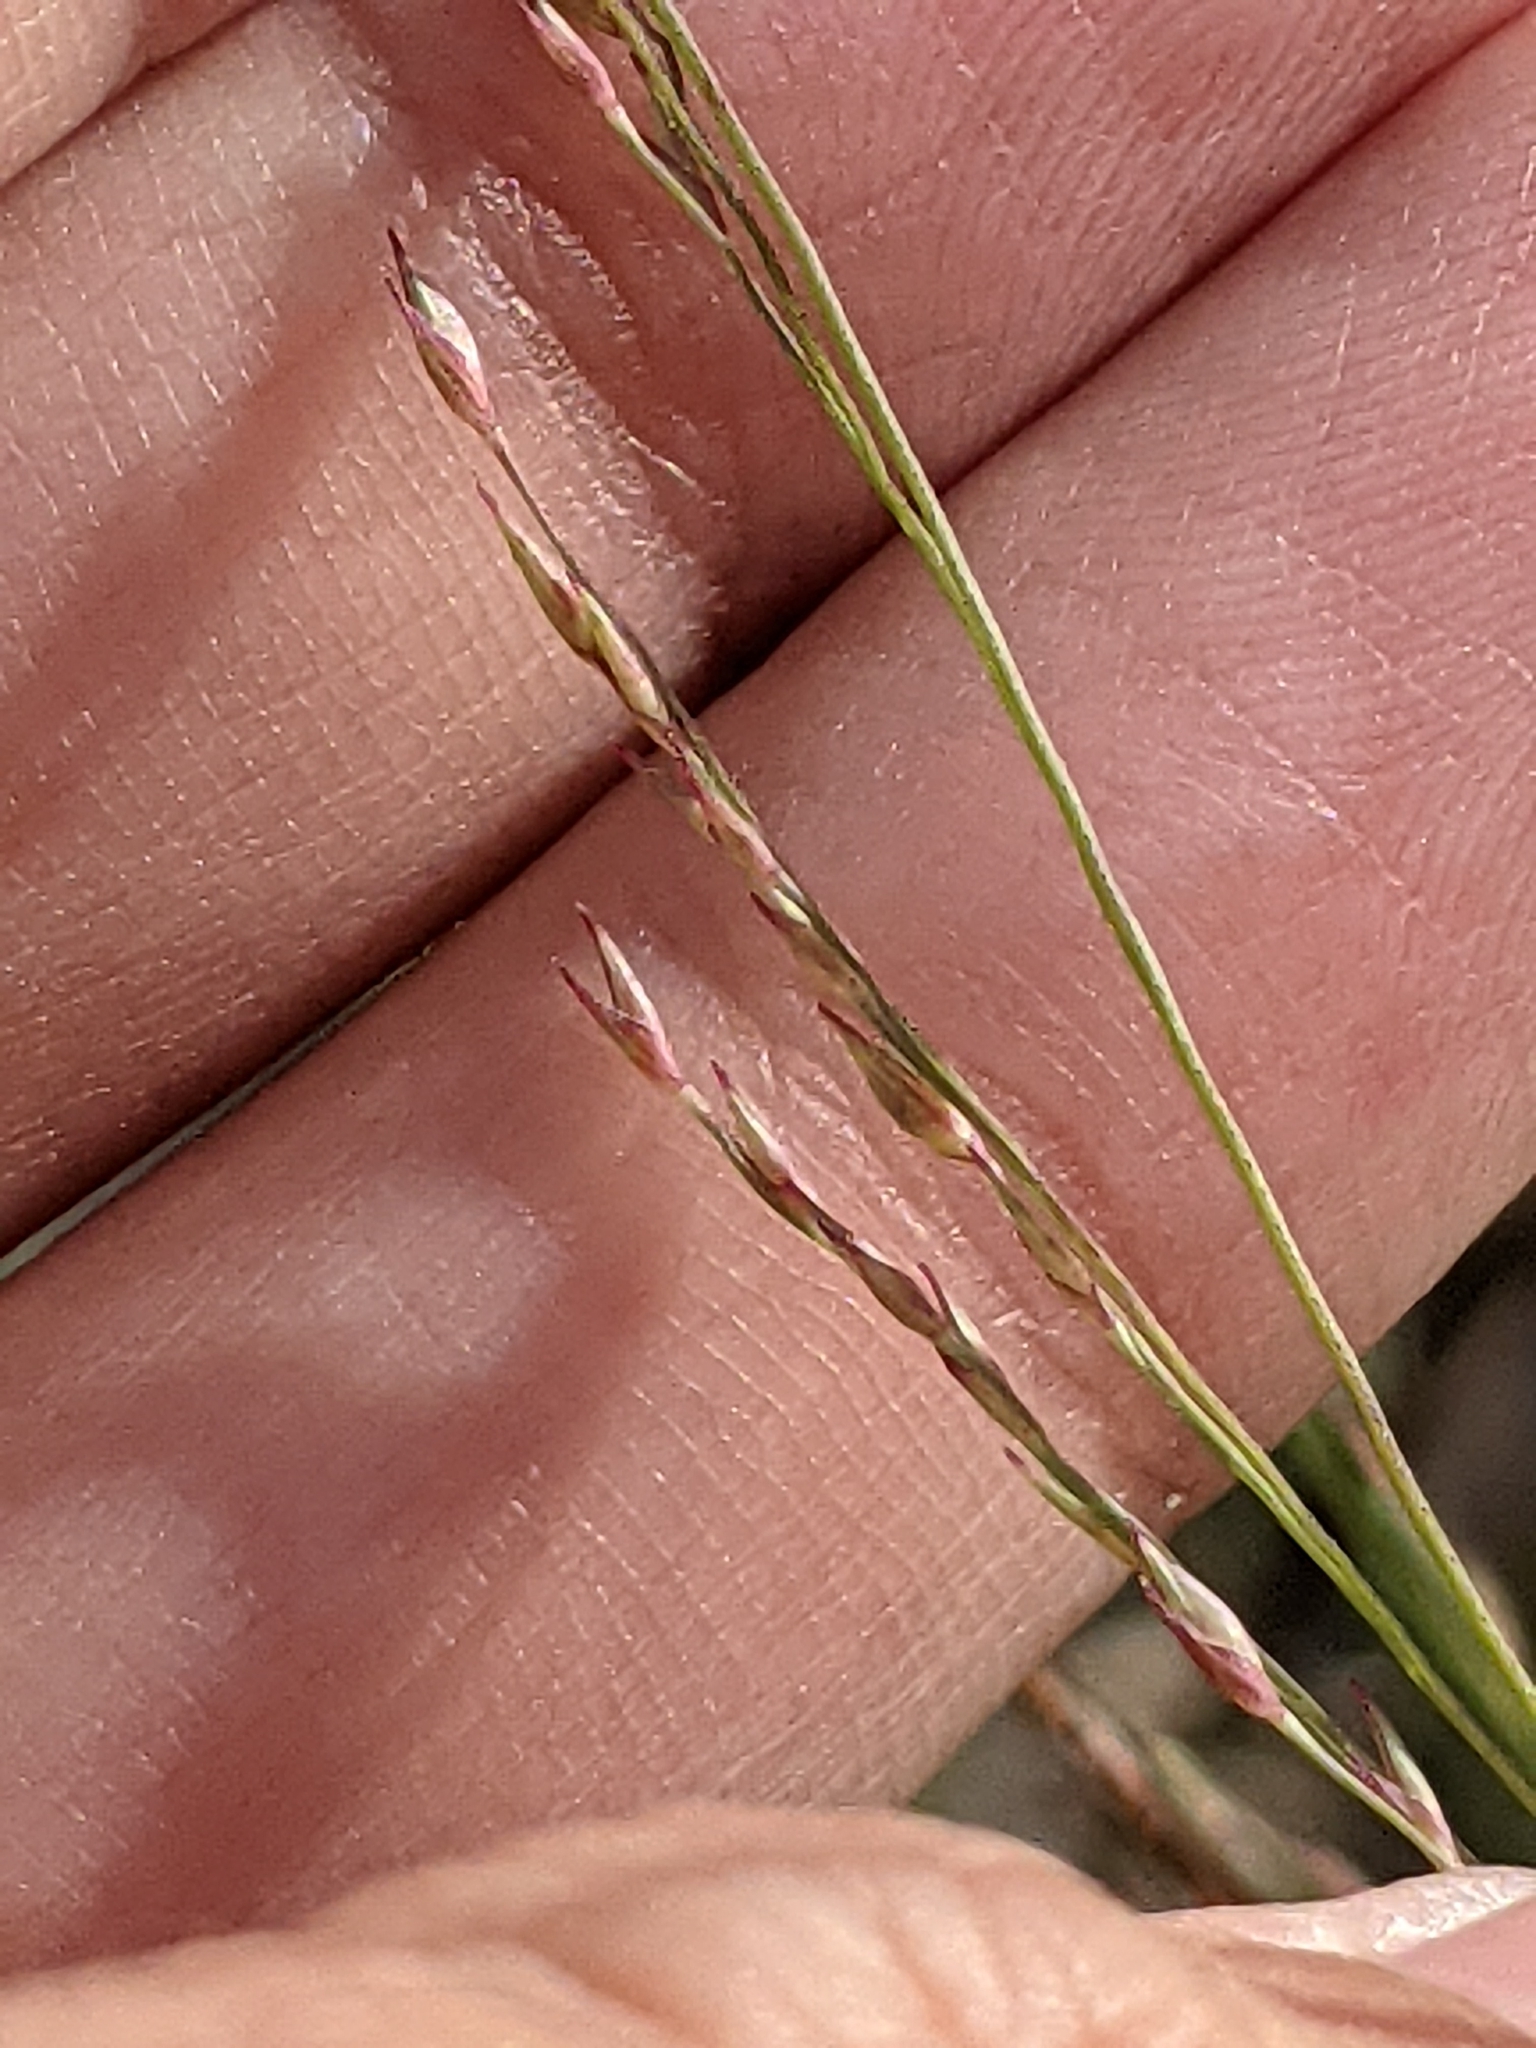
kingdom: Plantae
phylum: Tracheophyta
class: Liliopsida
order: Poales
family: Poaceae
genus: Panicum
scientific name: Panicum virgatum
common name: Switchgrass
